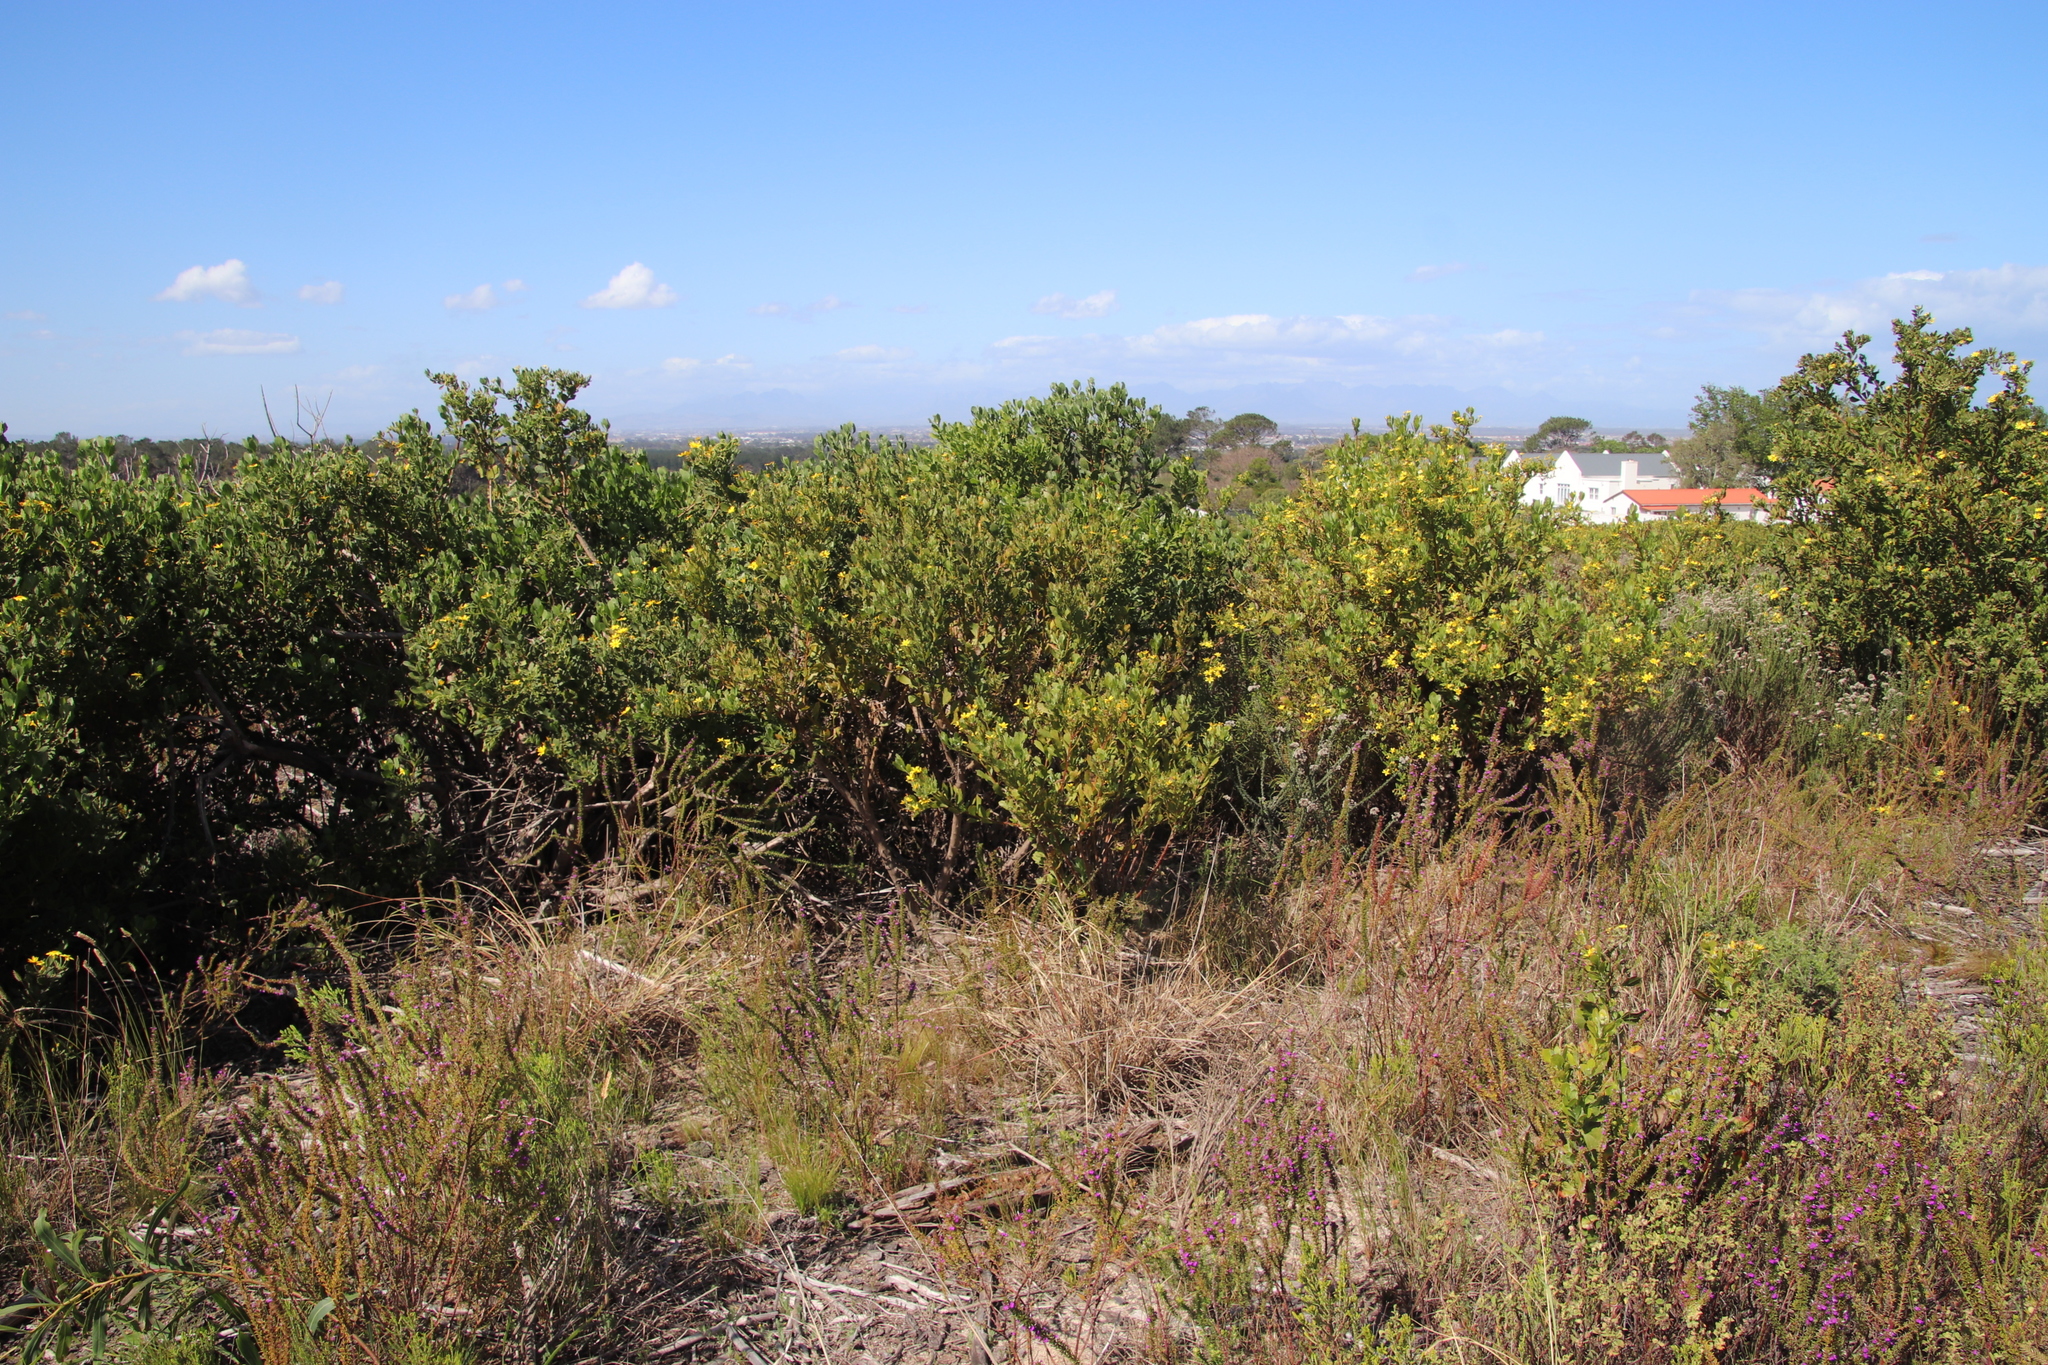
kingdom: Plantae
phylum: Tracheophyta
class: Magnoliopsida
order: Asterales
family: Asteraceae
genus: Osteospermum
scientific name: Osteospermum moniliferum
